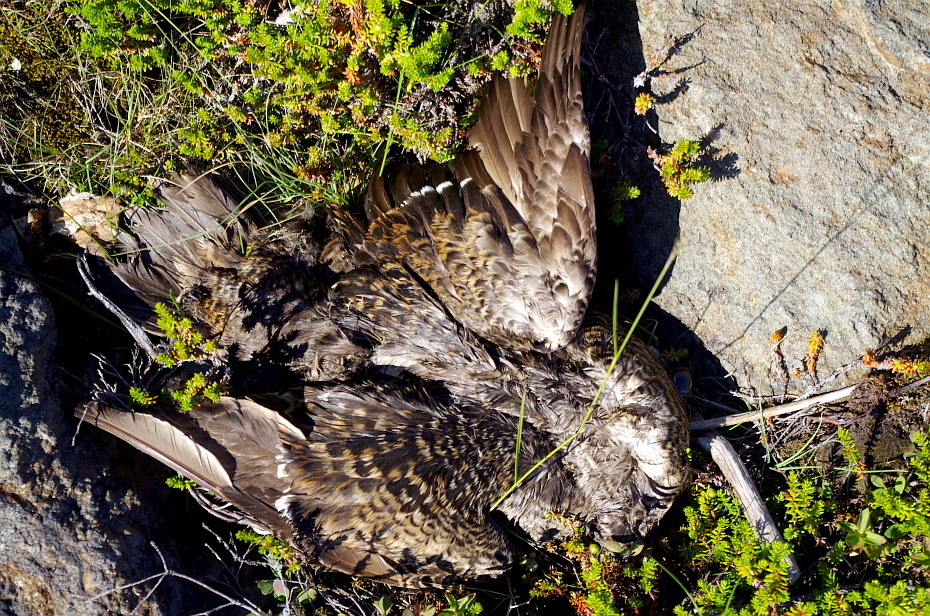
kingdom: Animalia
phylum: Chordata
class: Aves
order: Anseriformes
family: Anatidae
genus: Somateria
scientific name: Somateria mollissima
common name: Common eider
